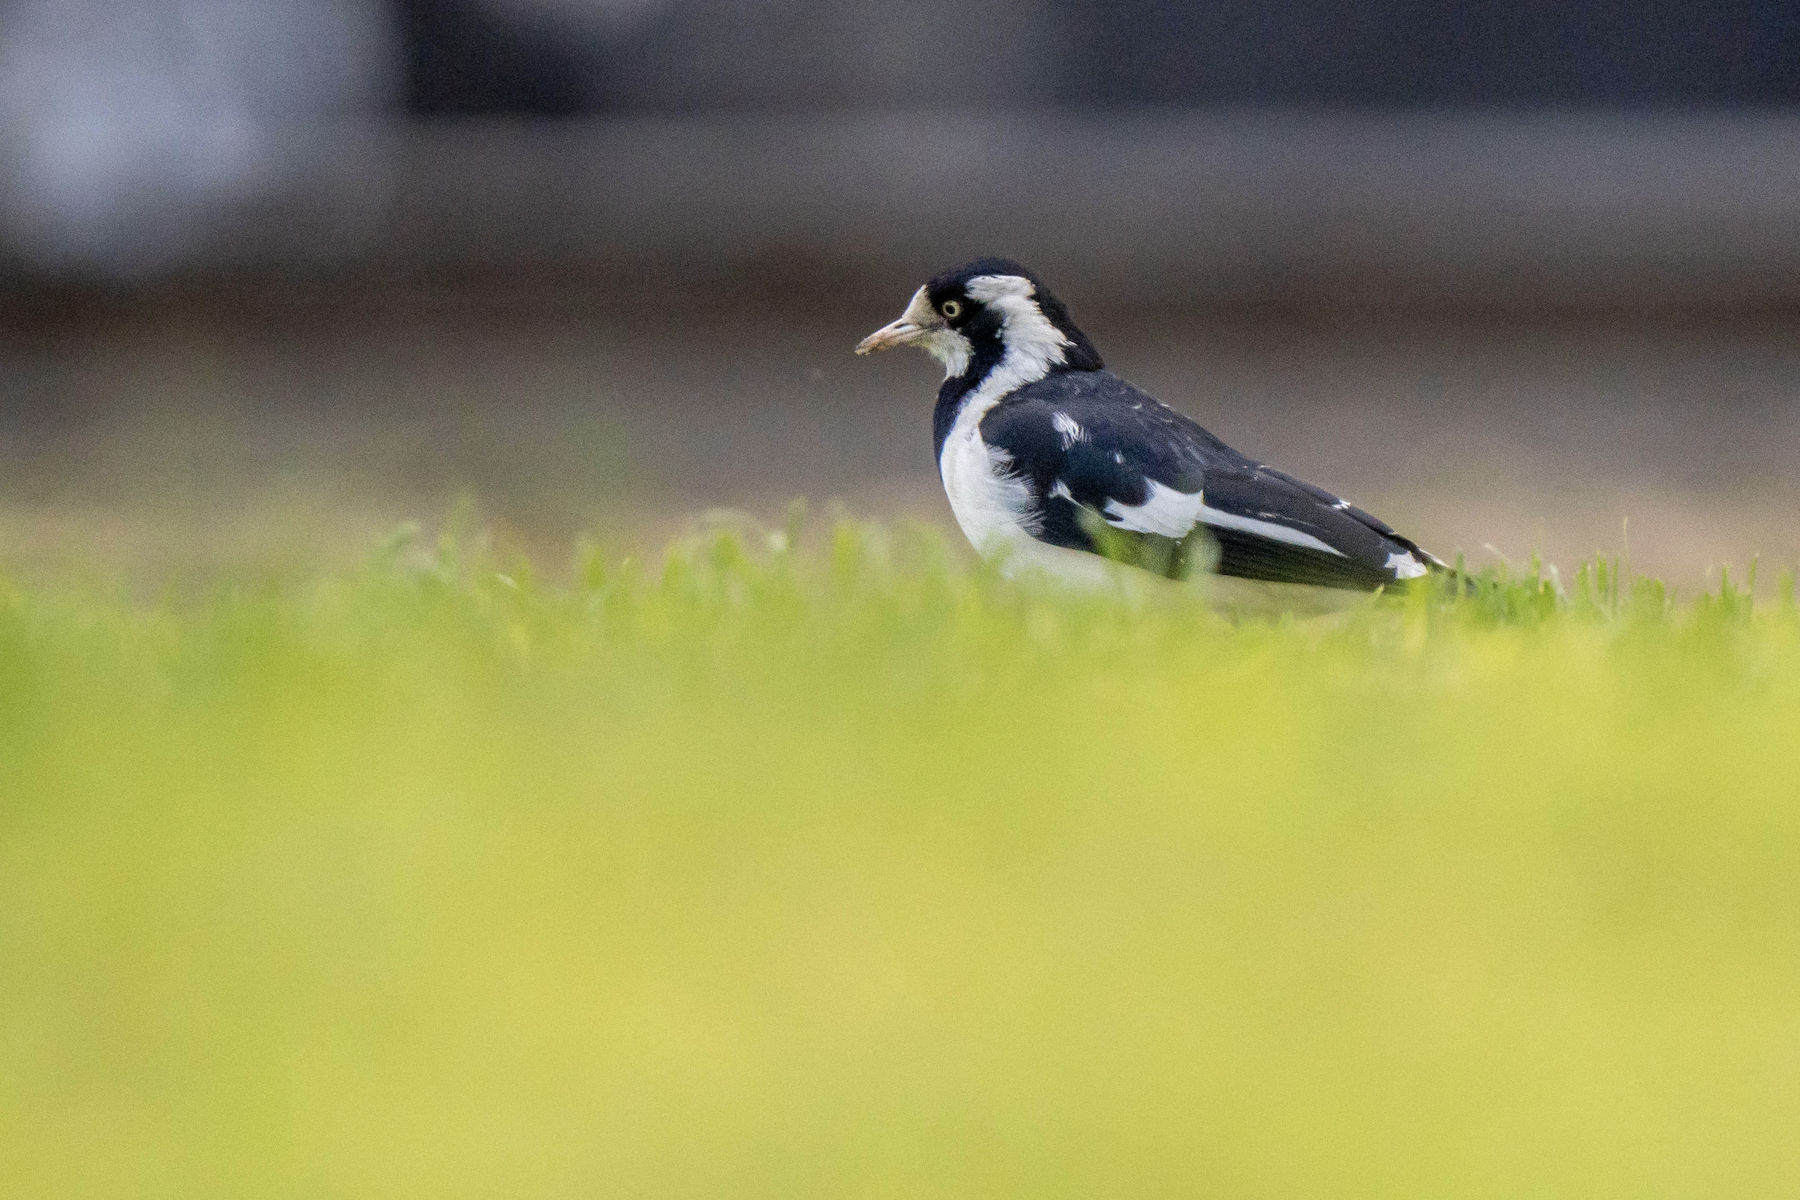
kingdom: Animalia
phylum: Chordata
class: Aves
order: Passeriformes
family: Monarchidae
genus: Grallina
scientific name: Grallina cyanoleuca
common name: Magpie-lark
